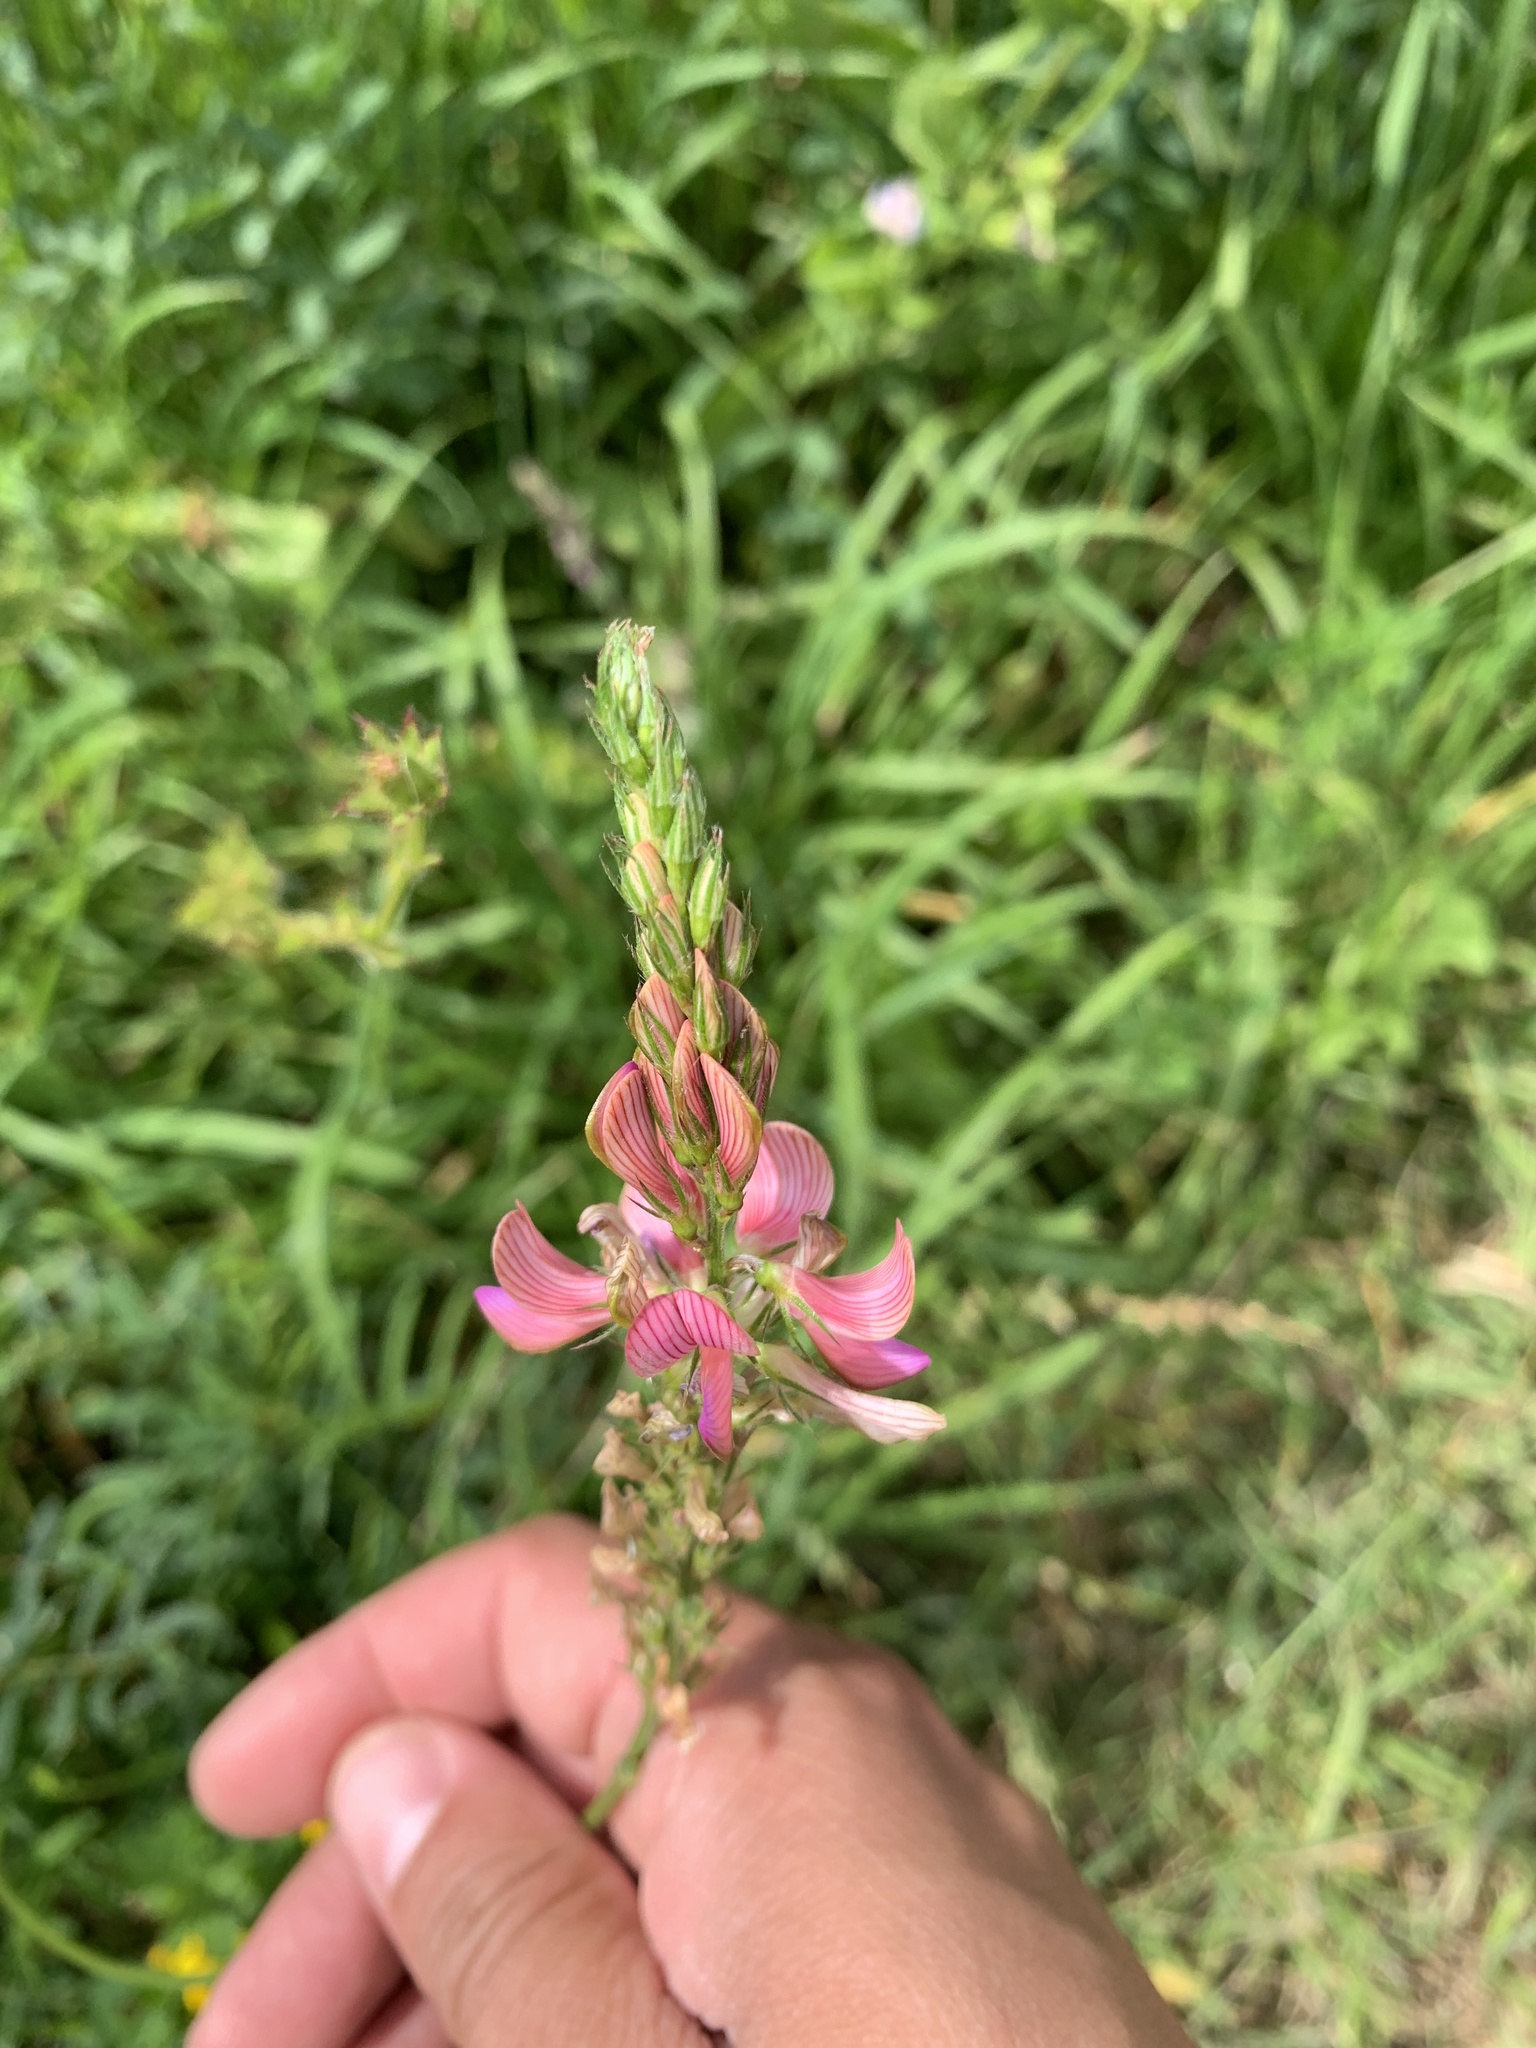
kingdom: Plantae
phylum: Tracheophyta
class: Magnoliopsida
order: Fabales
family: Fabaceae
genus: Onobrychis
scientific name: Onobrychis viciifolia
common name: Sainfoin
